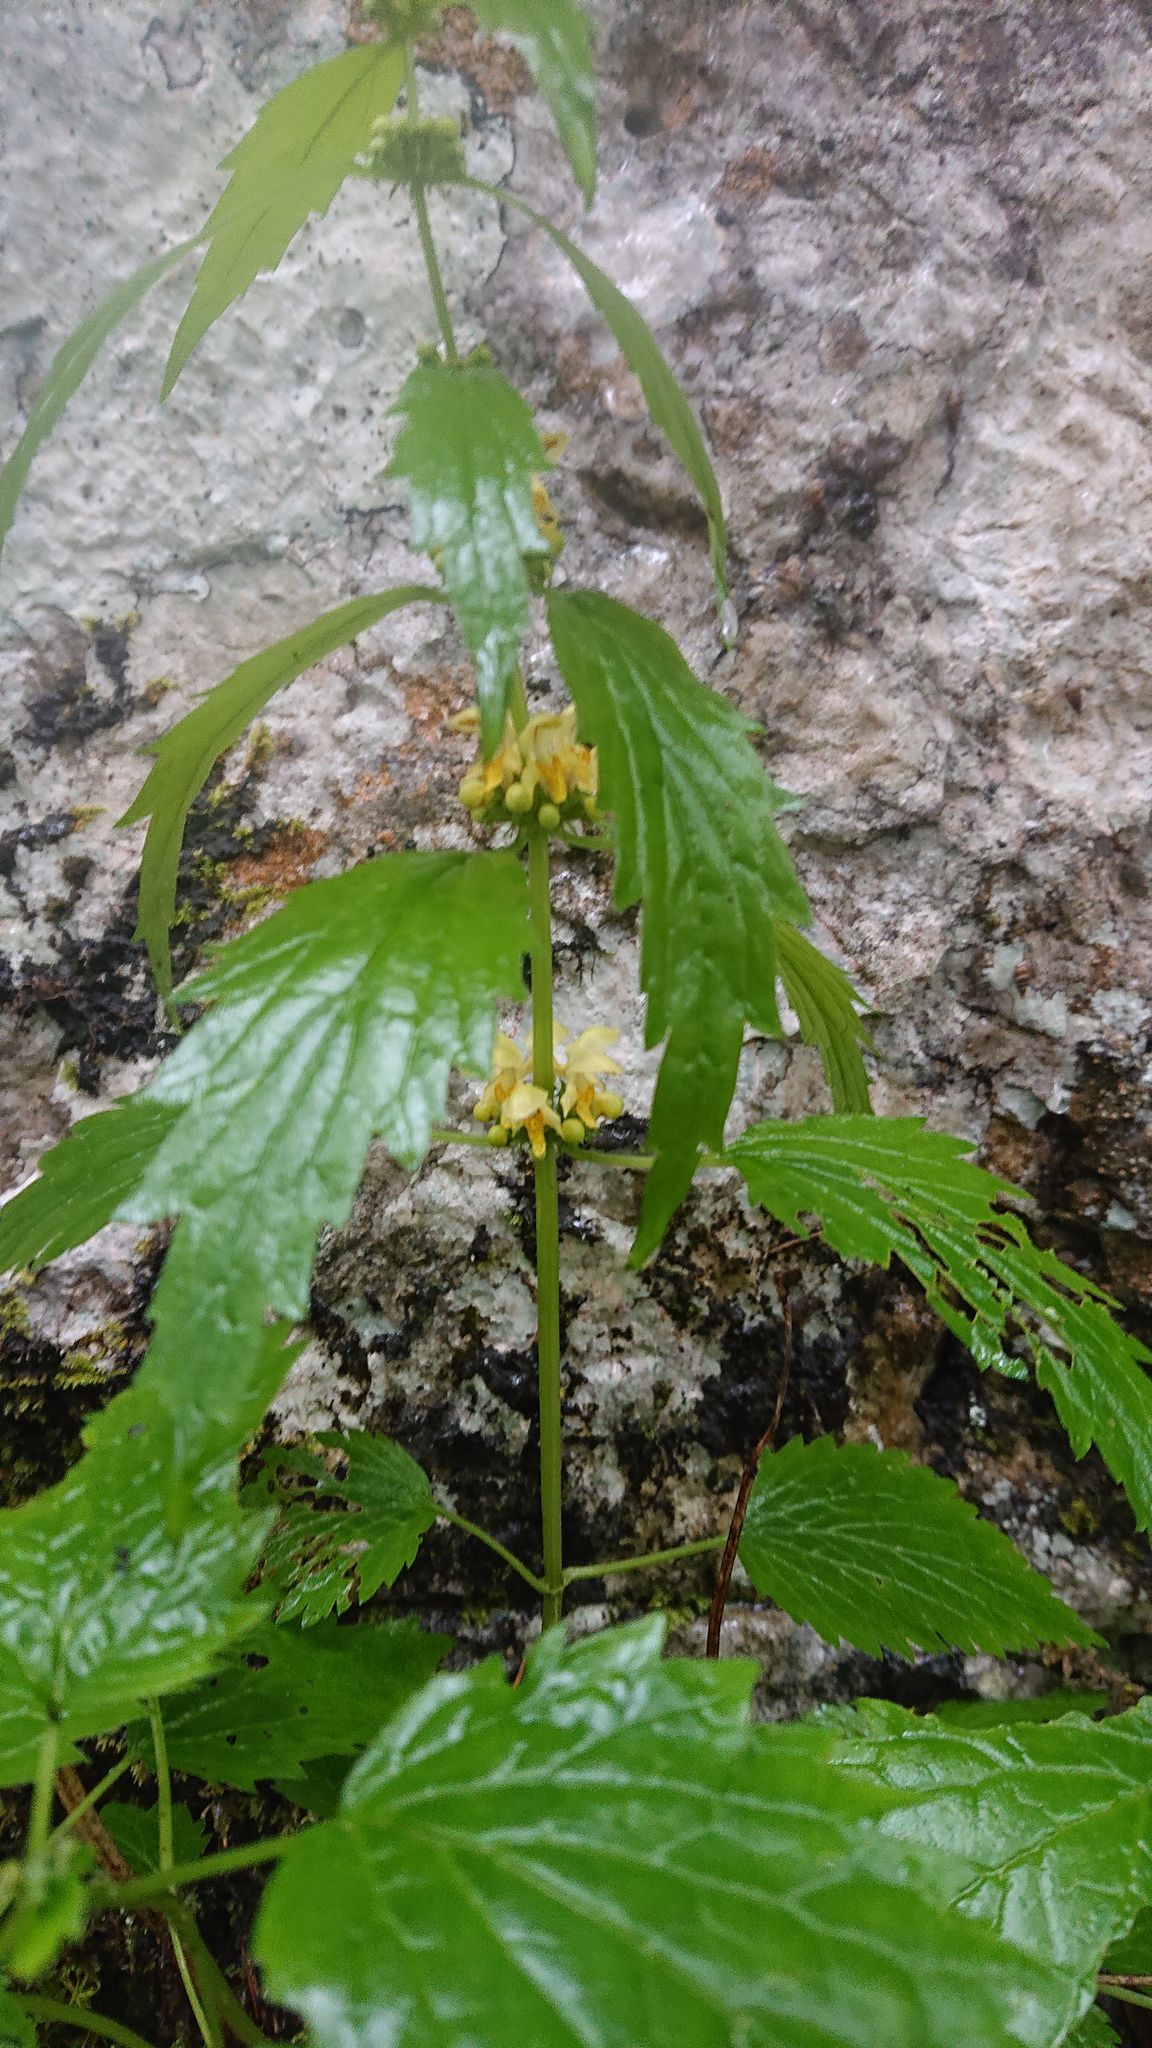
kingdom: Plantae
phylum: Tracheophyta
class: Magnoliopsida
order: Lamiales
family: Lamiaceae
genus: Lamium
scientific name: Lamium galeobdolon
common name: Yellow archangel
